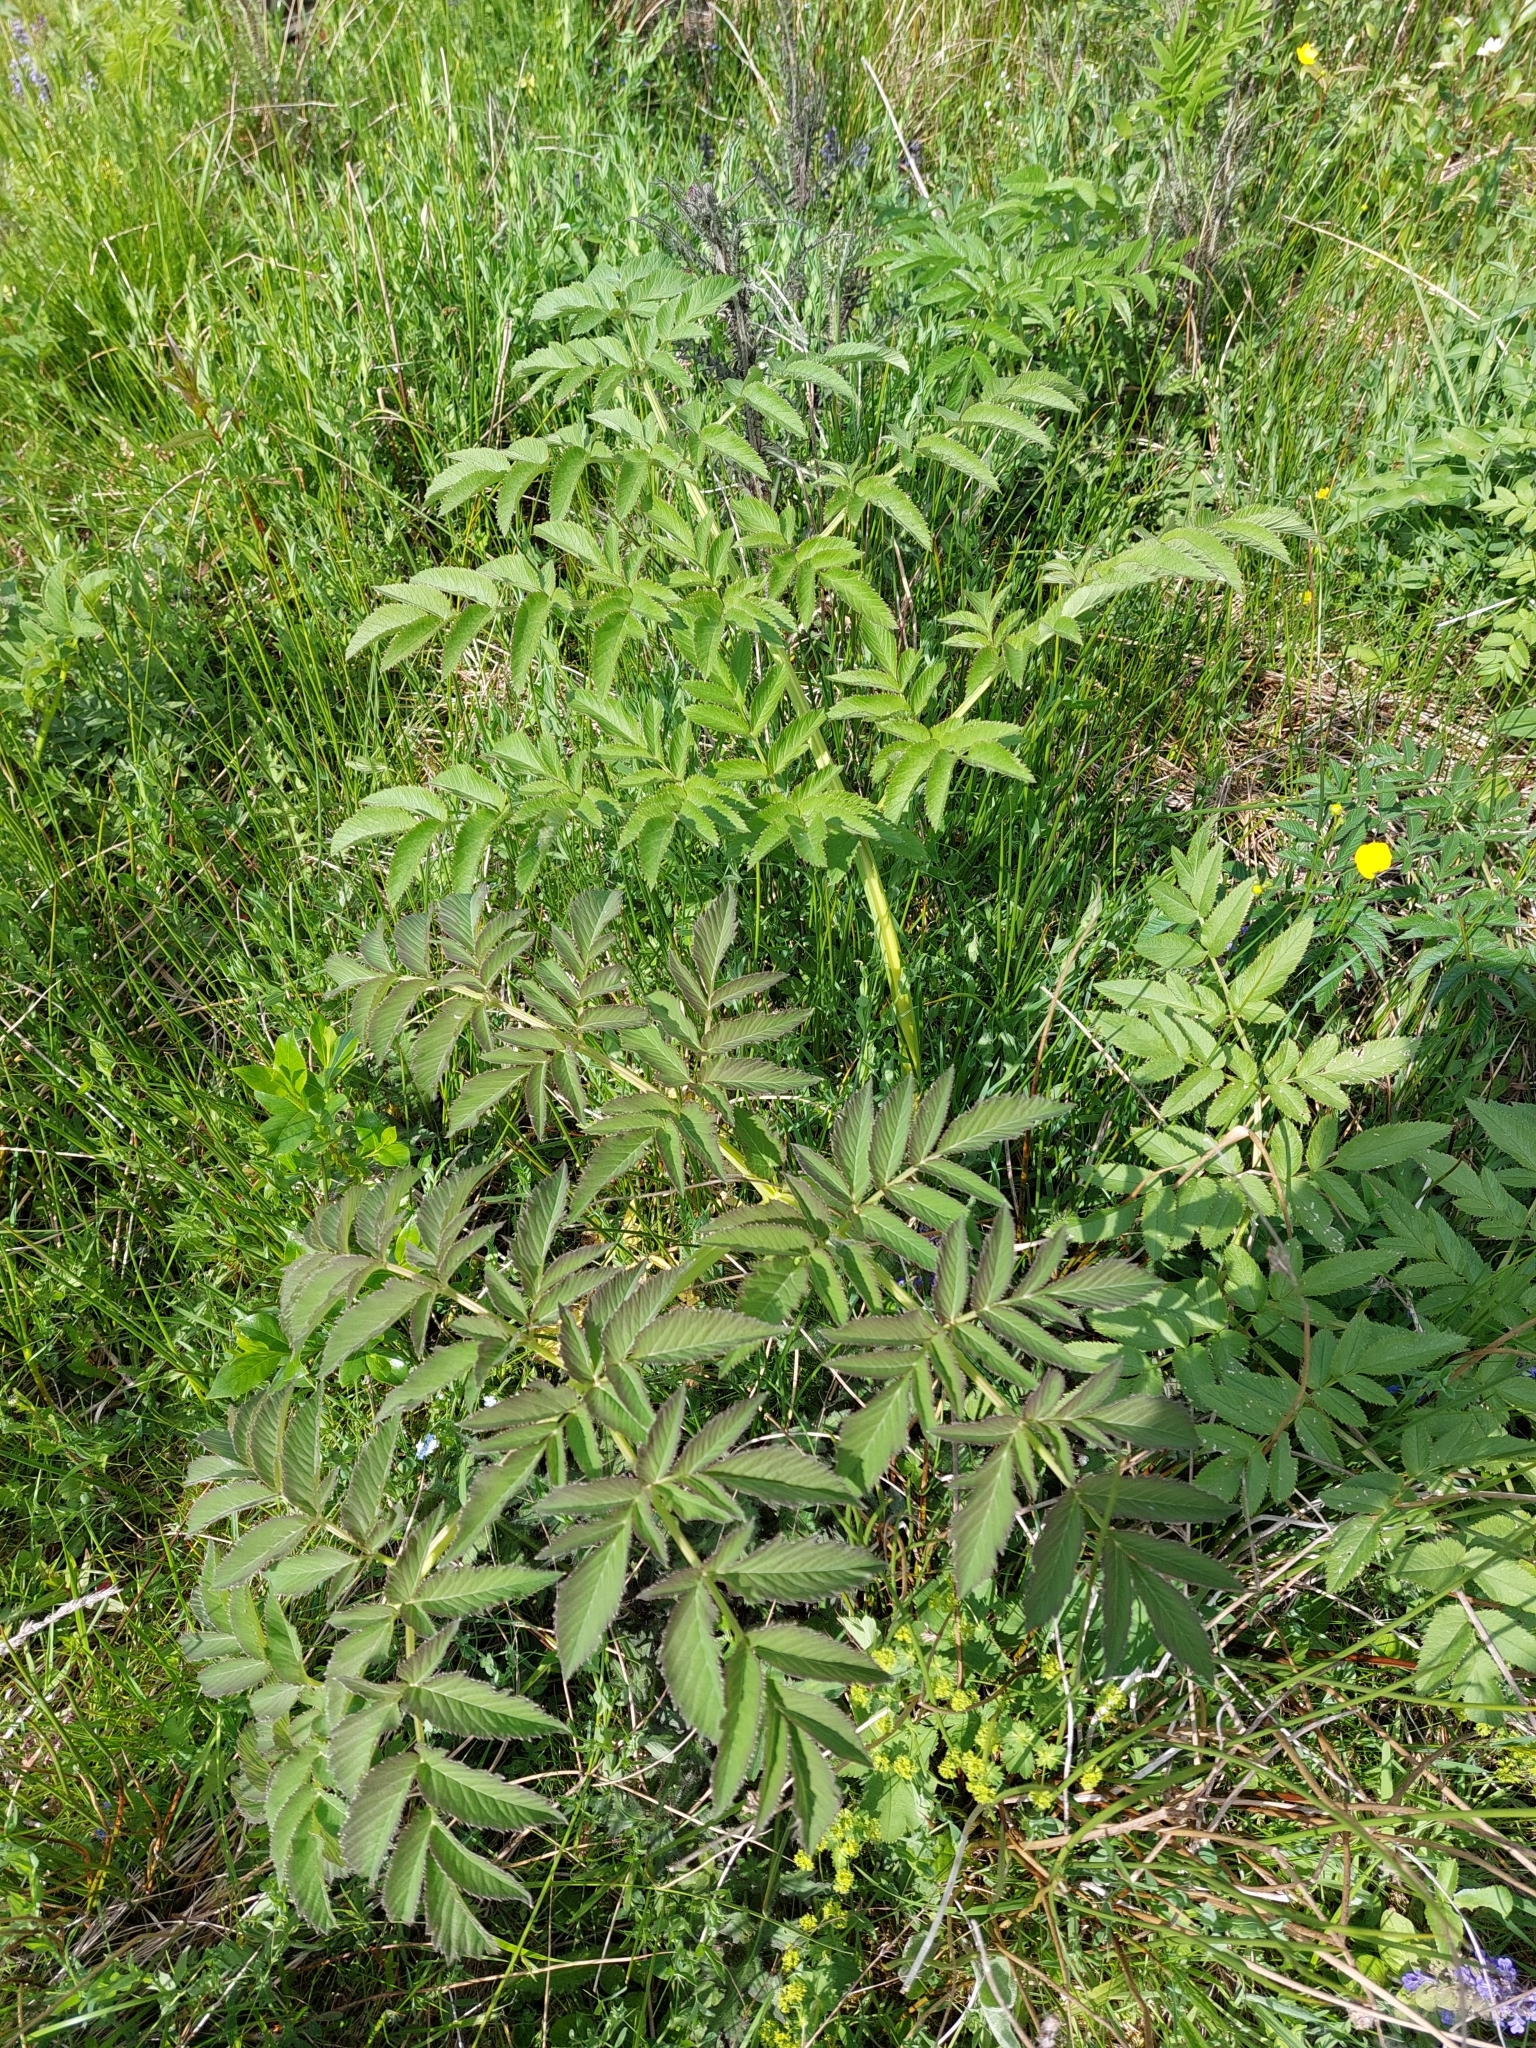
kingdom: Plantae
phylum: Tracheophyta
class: Magnoliopsida
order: Apiales
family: Apiaceae
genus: Angelica
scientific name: Angelica sylvestris
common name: Wild angelica
